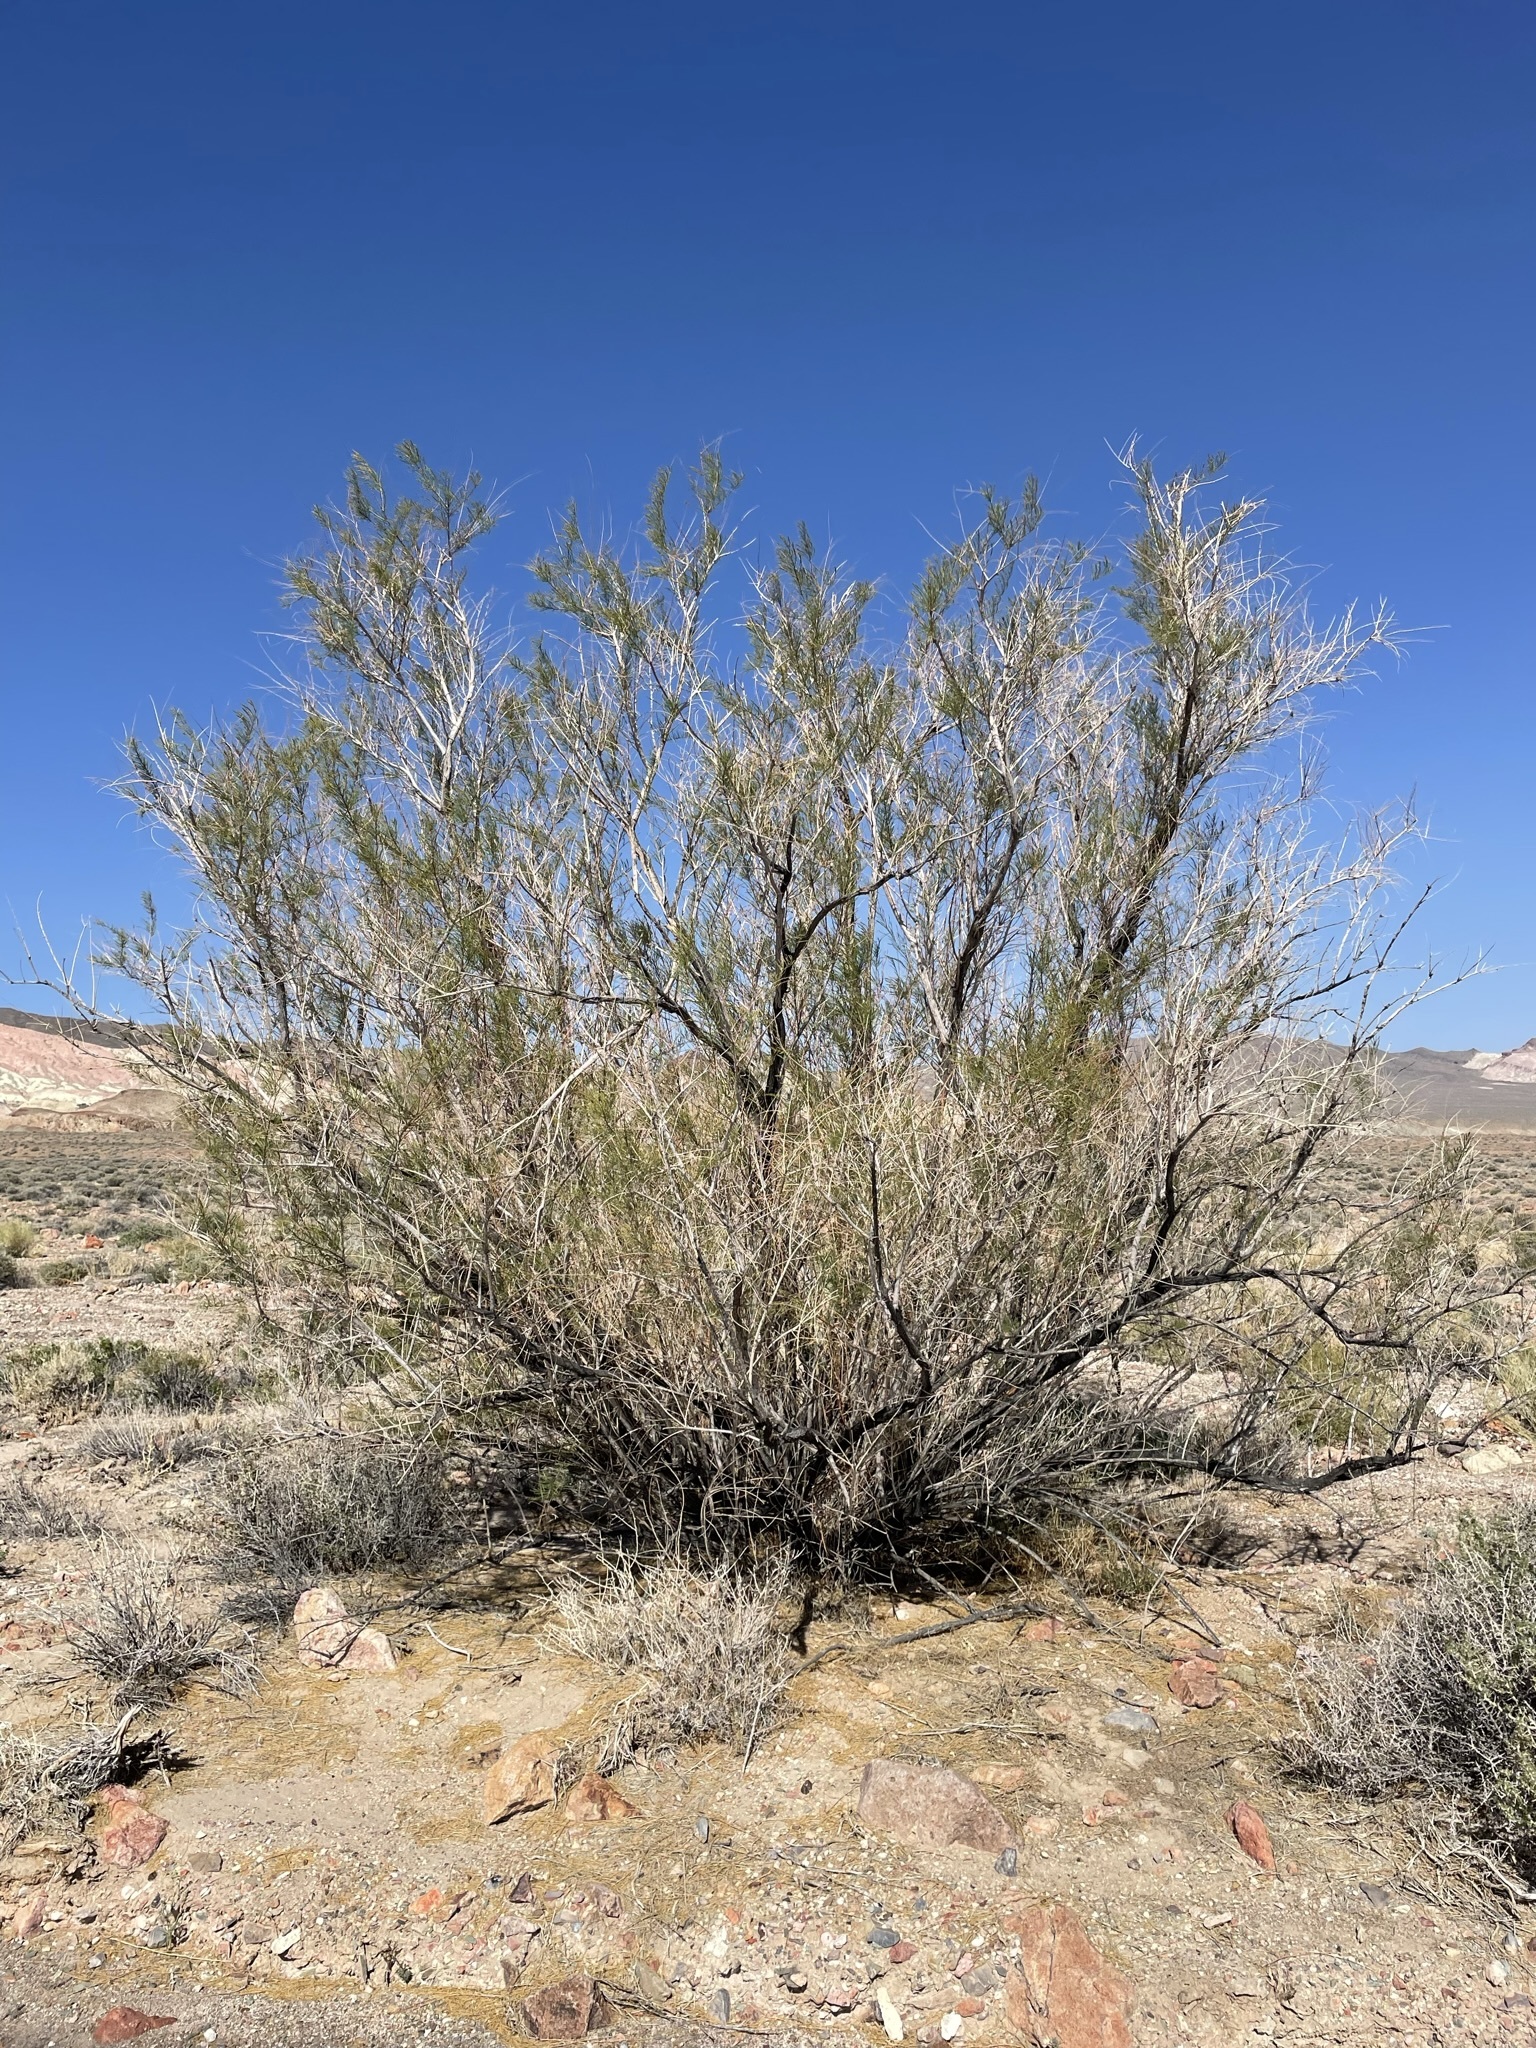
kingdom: Plantae
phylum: Tracheophyta
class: Magnoliopsida
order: Caryophyllales
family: Tamaricaceae
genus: Tamarix
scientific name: Tamarix
